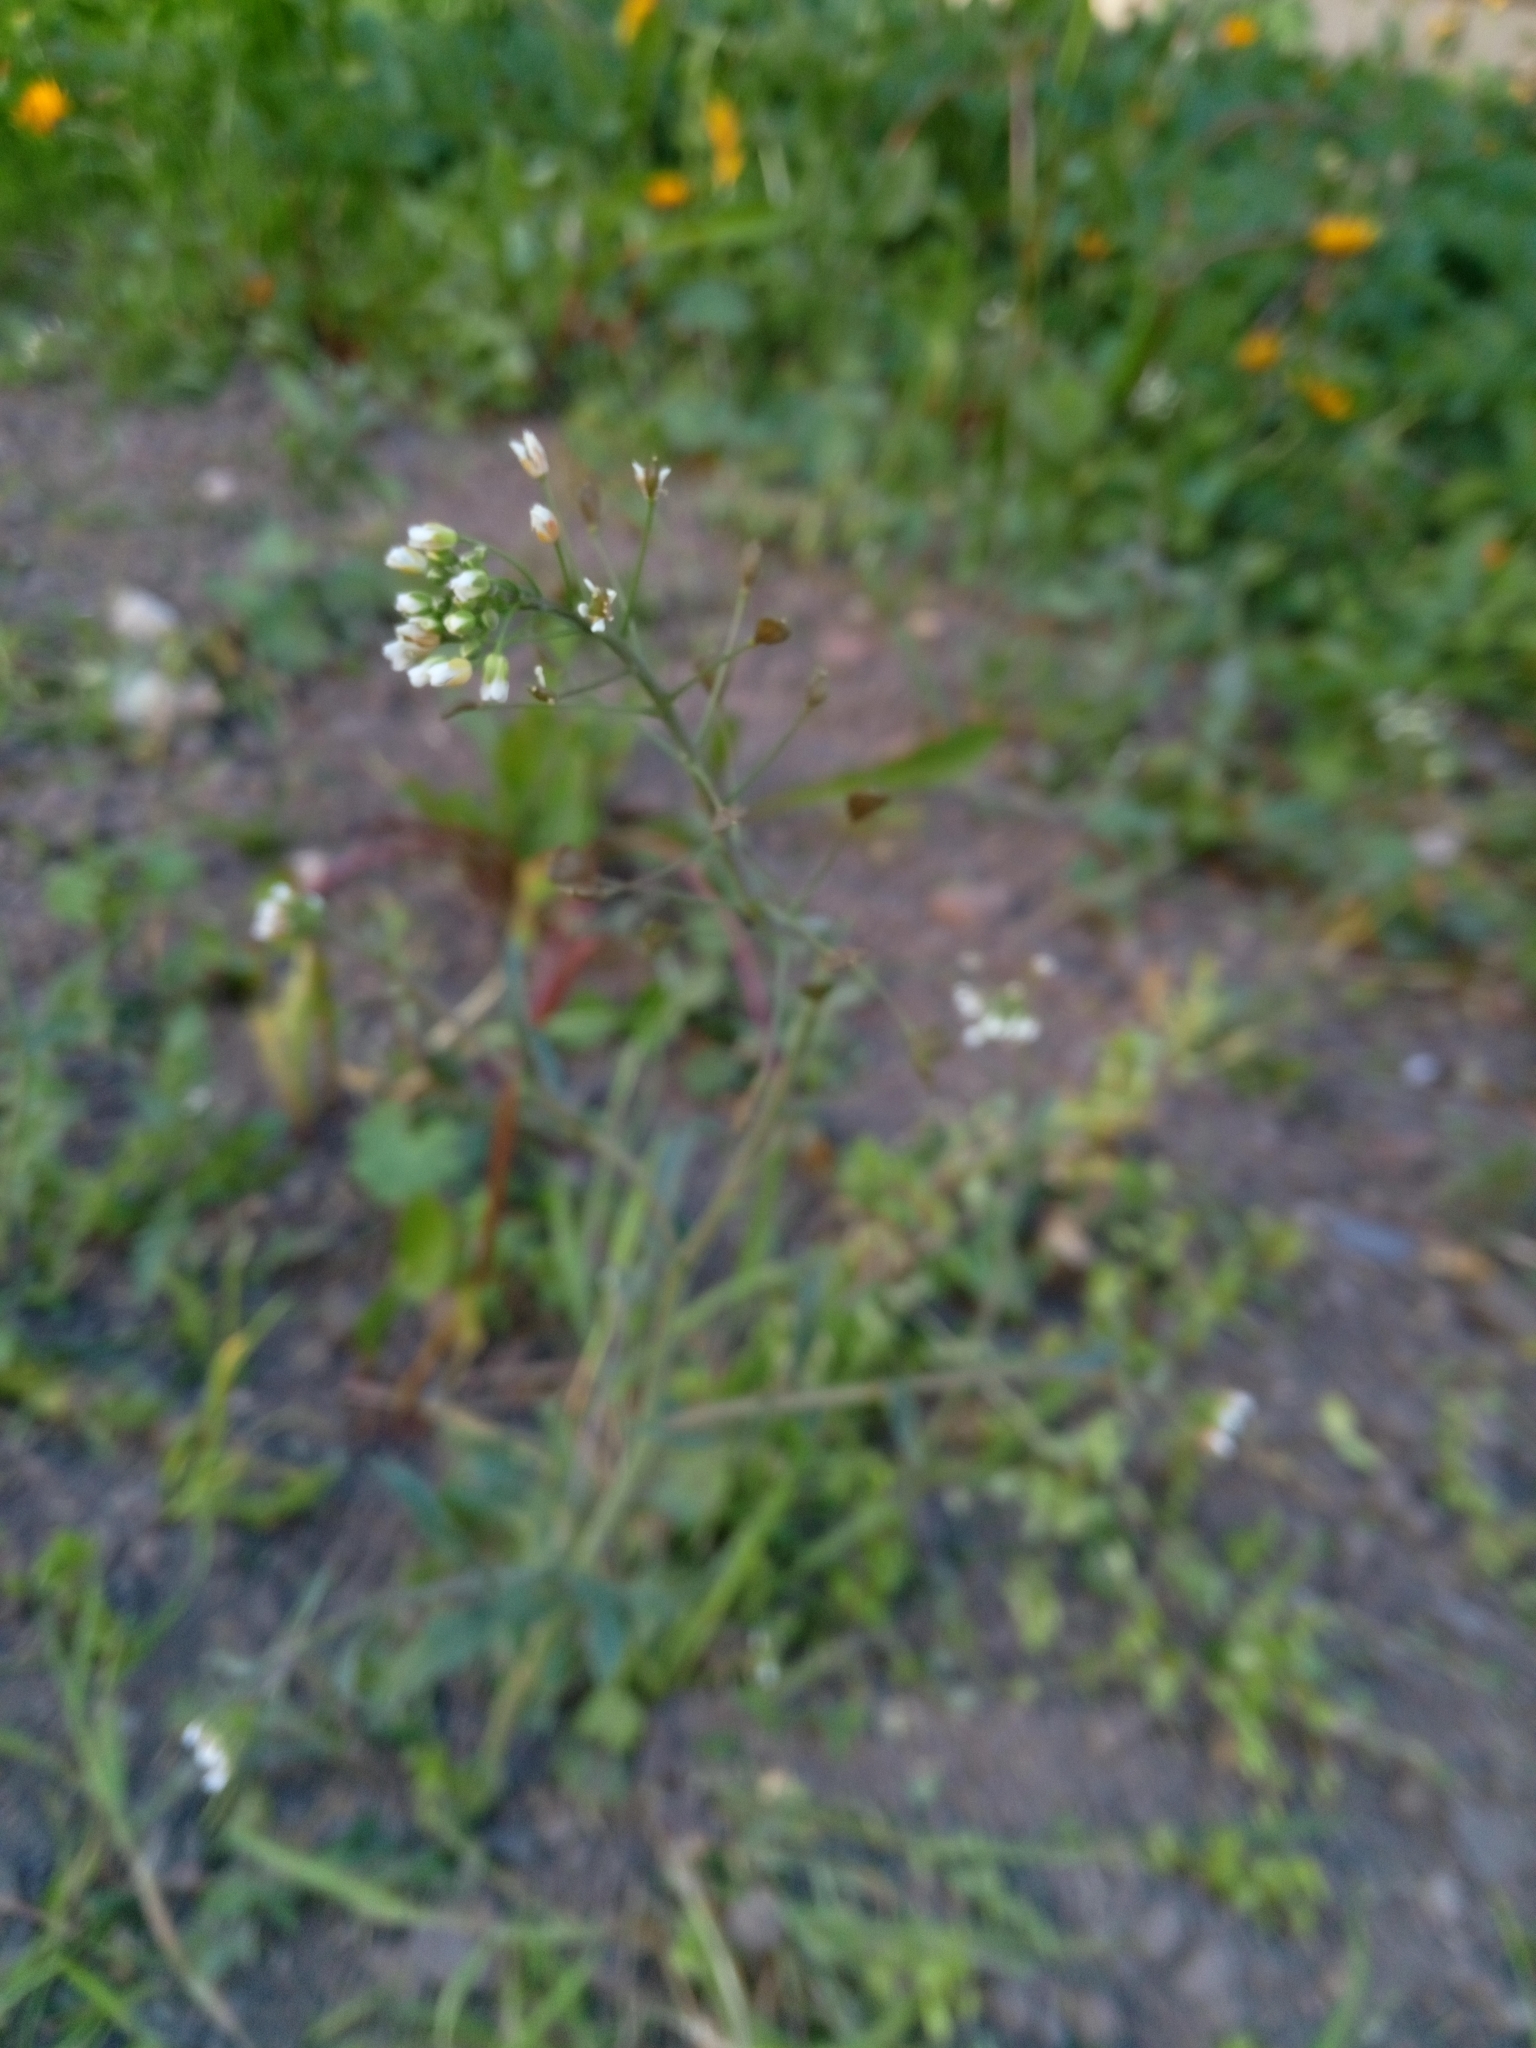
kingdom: Plantae
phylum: Tracheophyta
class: Magnoliopsida
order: Brassicales
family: Brassicaceae
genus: Capsella
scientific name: Capsella bursa-pastoris
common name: Shepherd's purse
